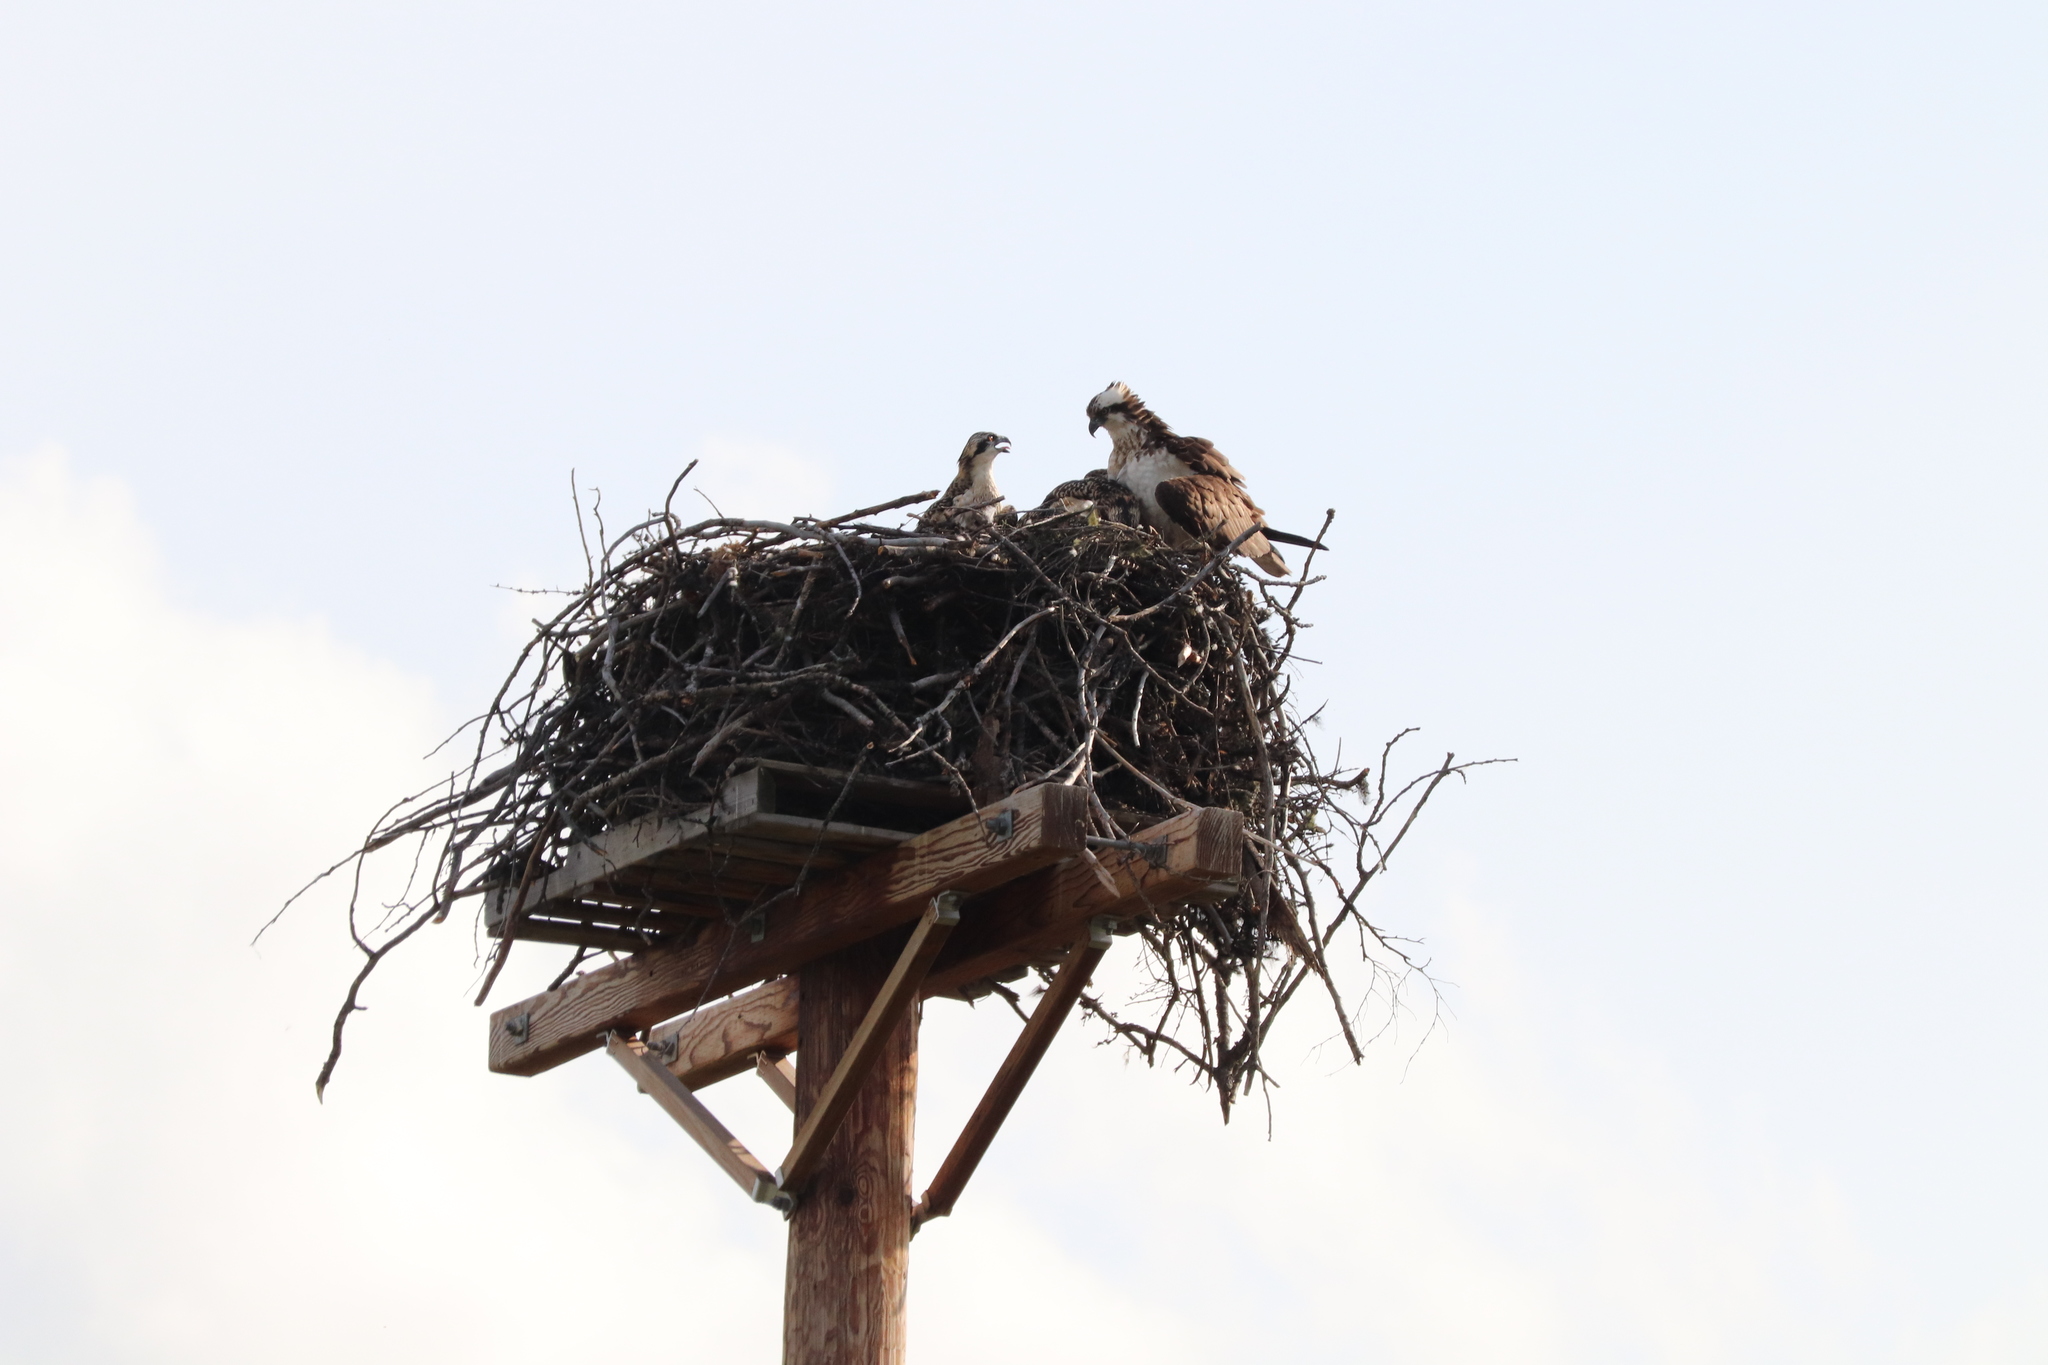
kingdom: Animalia
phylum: Chordata
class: Aves
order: Accipitriformes
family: Pandionidae
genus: Pandion
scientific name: Pandion haliaetus
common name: Osprey
